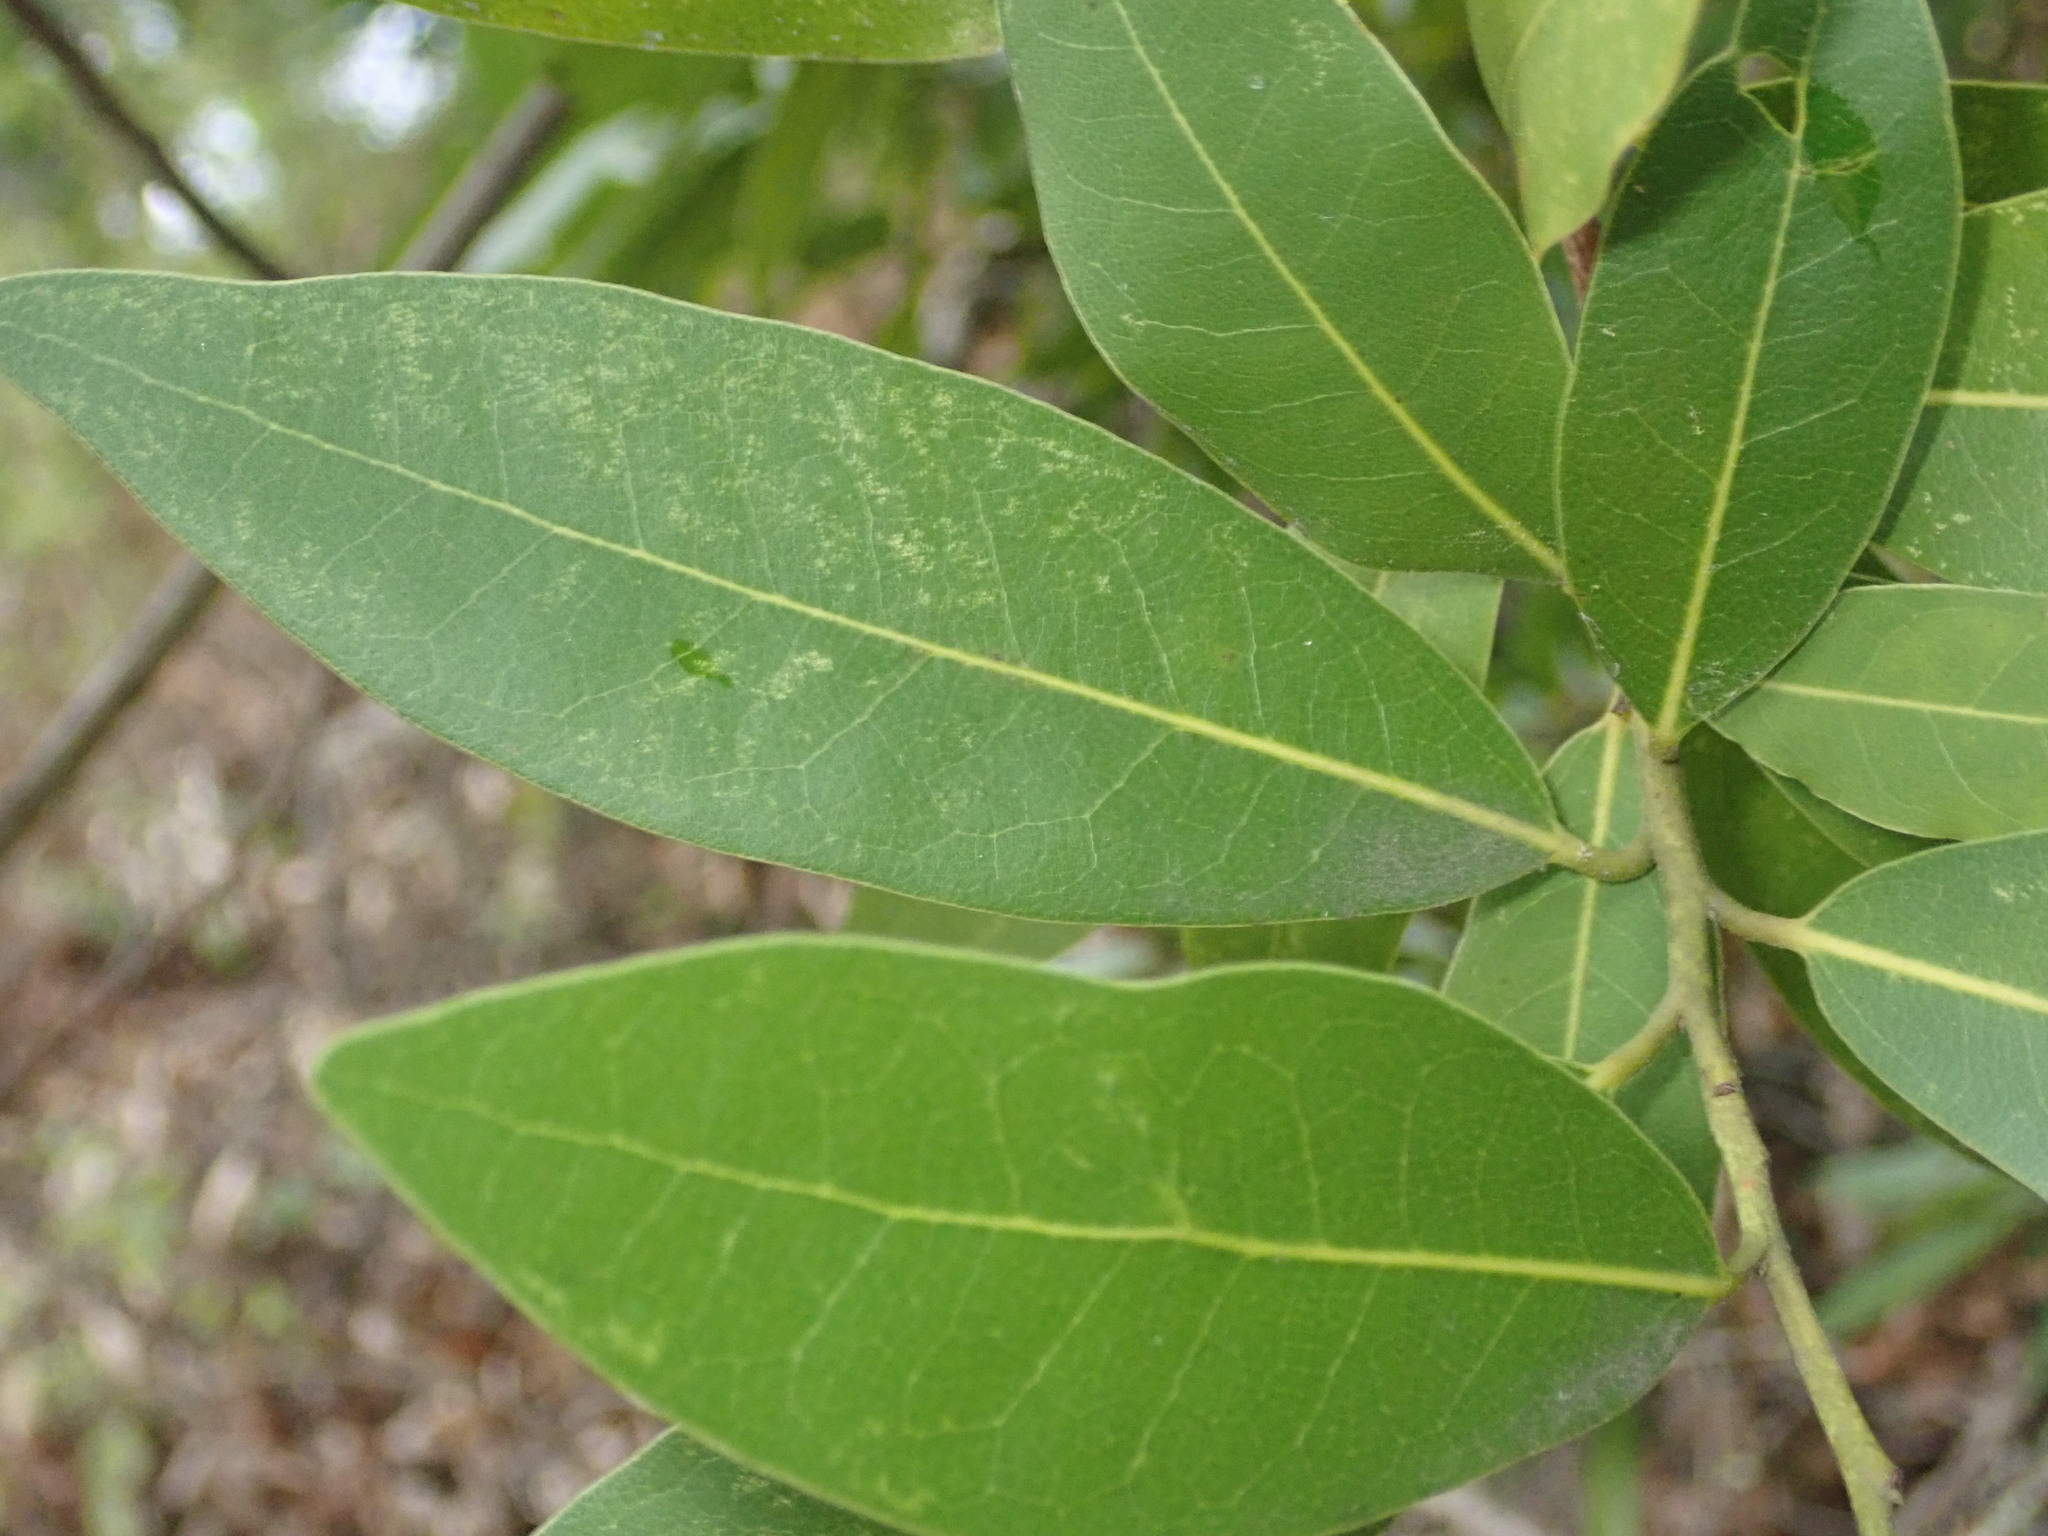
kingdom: Plantae
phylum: Tracheophyta
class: Magnoliopsida
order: Laurales
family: Lauraceae
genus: Umbellularia
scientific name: Umbellularia californica
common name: California bay
